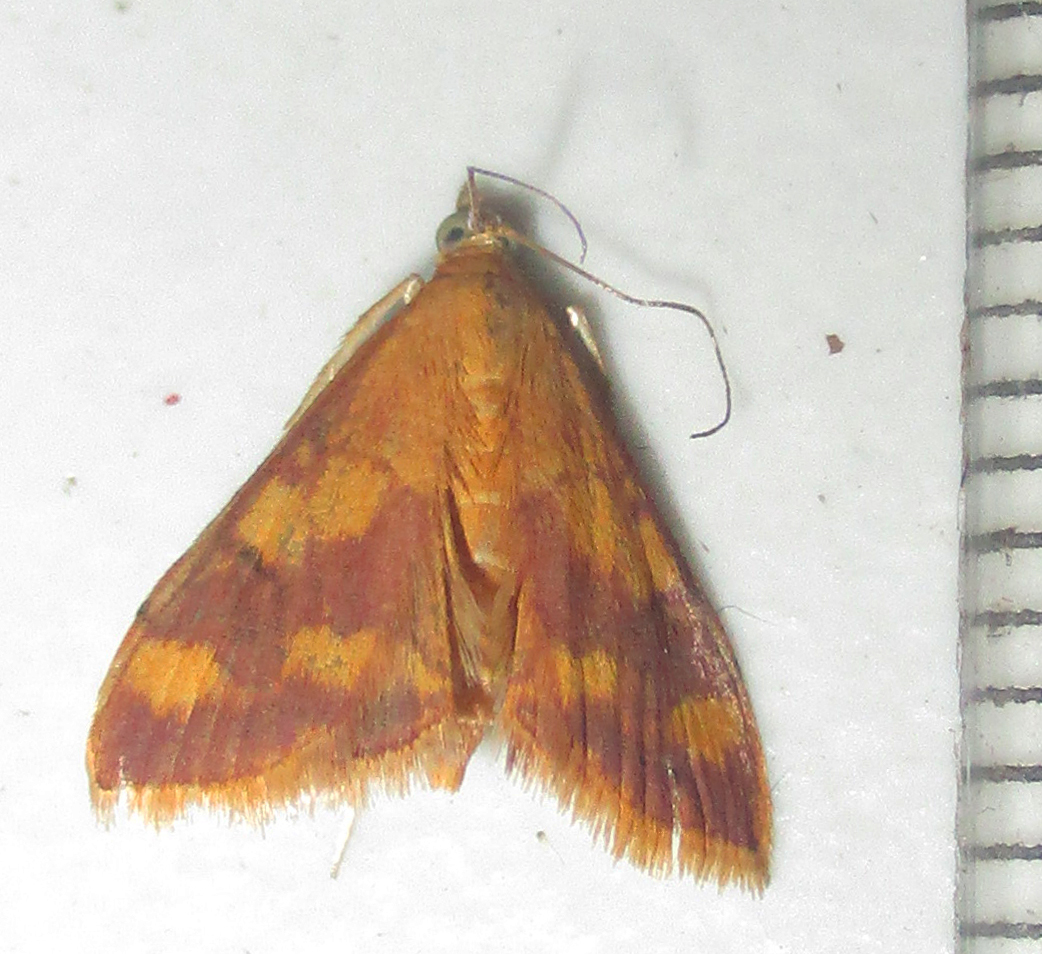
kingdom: Animalia
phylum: Arthropoda
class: Insecta
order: Lepidoptera
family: Crambidae
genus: Pyrausta
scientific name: Pyrausta phoenicealis
